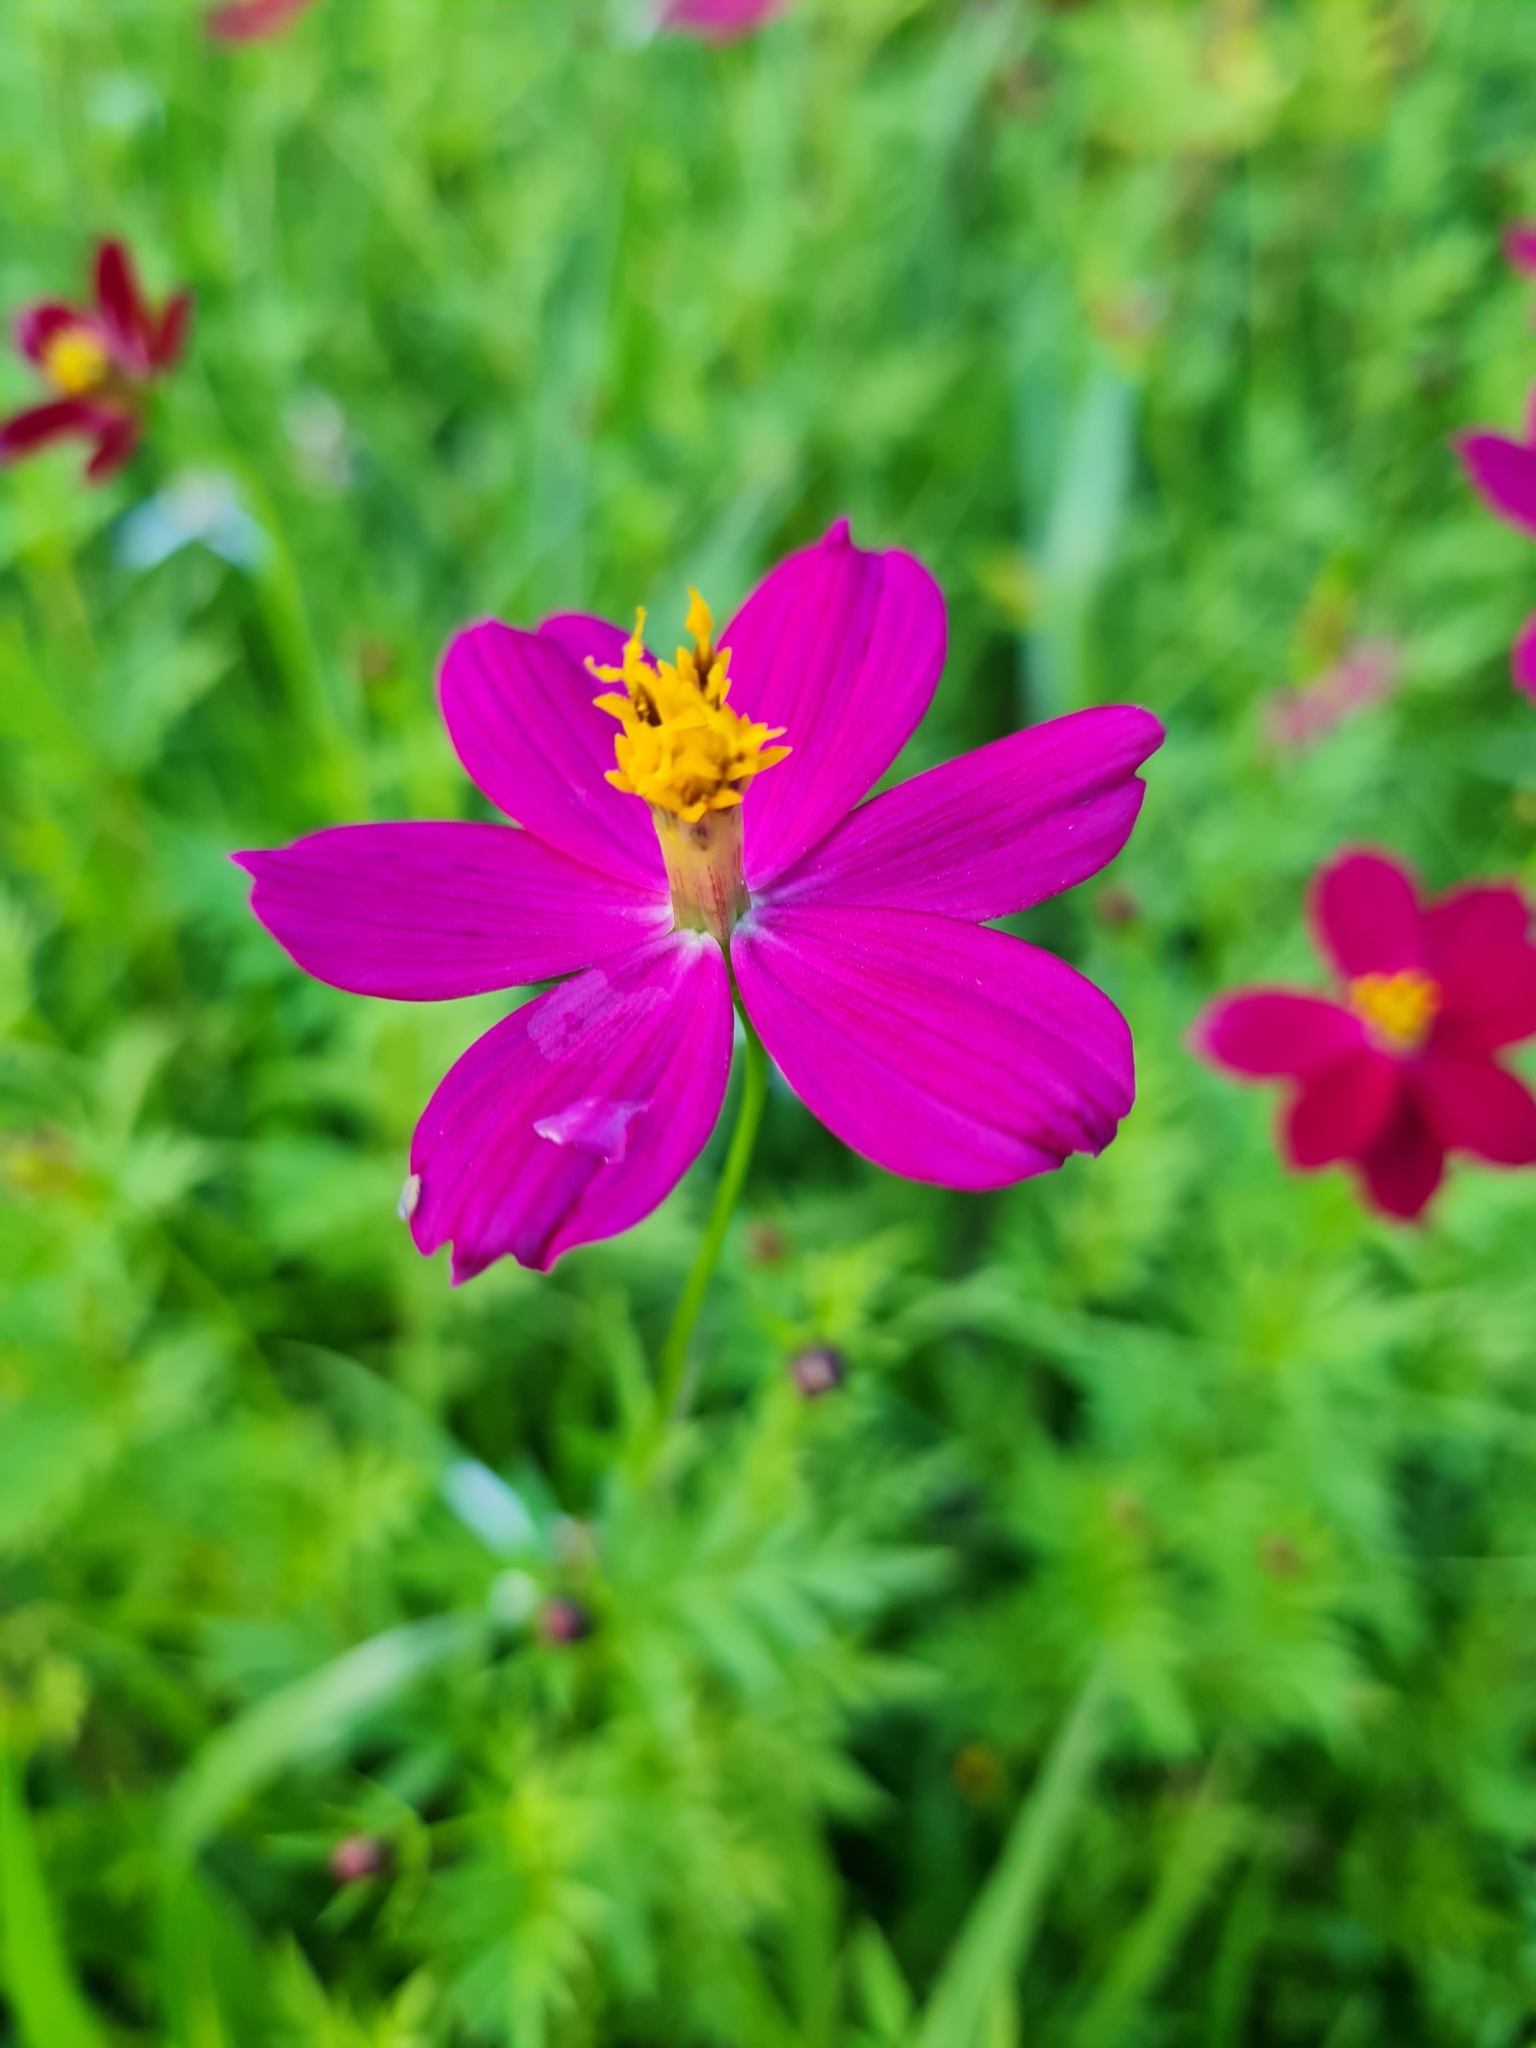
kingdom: Plantae
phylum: Tracheophyta
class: Magnoliopsida
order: Asterales
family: Asteraceae
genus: Cosmos
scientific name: Cosmos caudatus
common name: Wild cosmos
